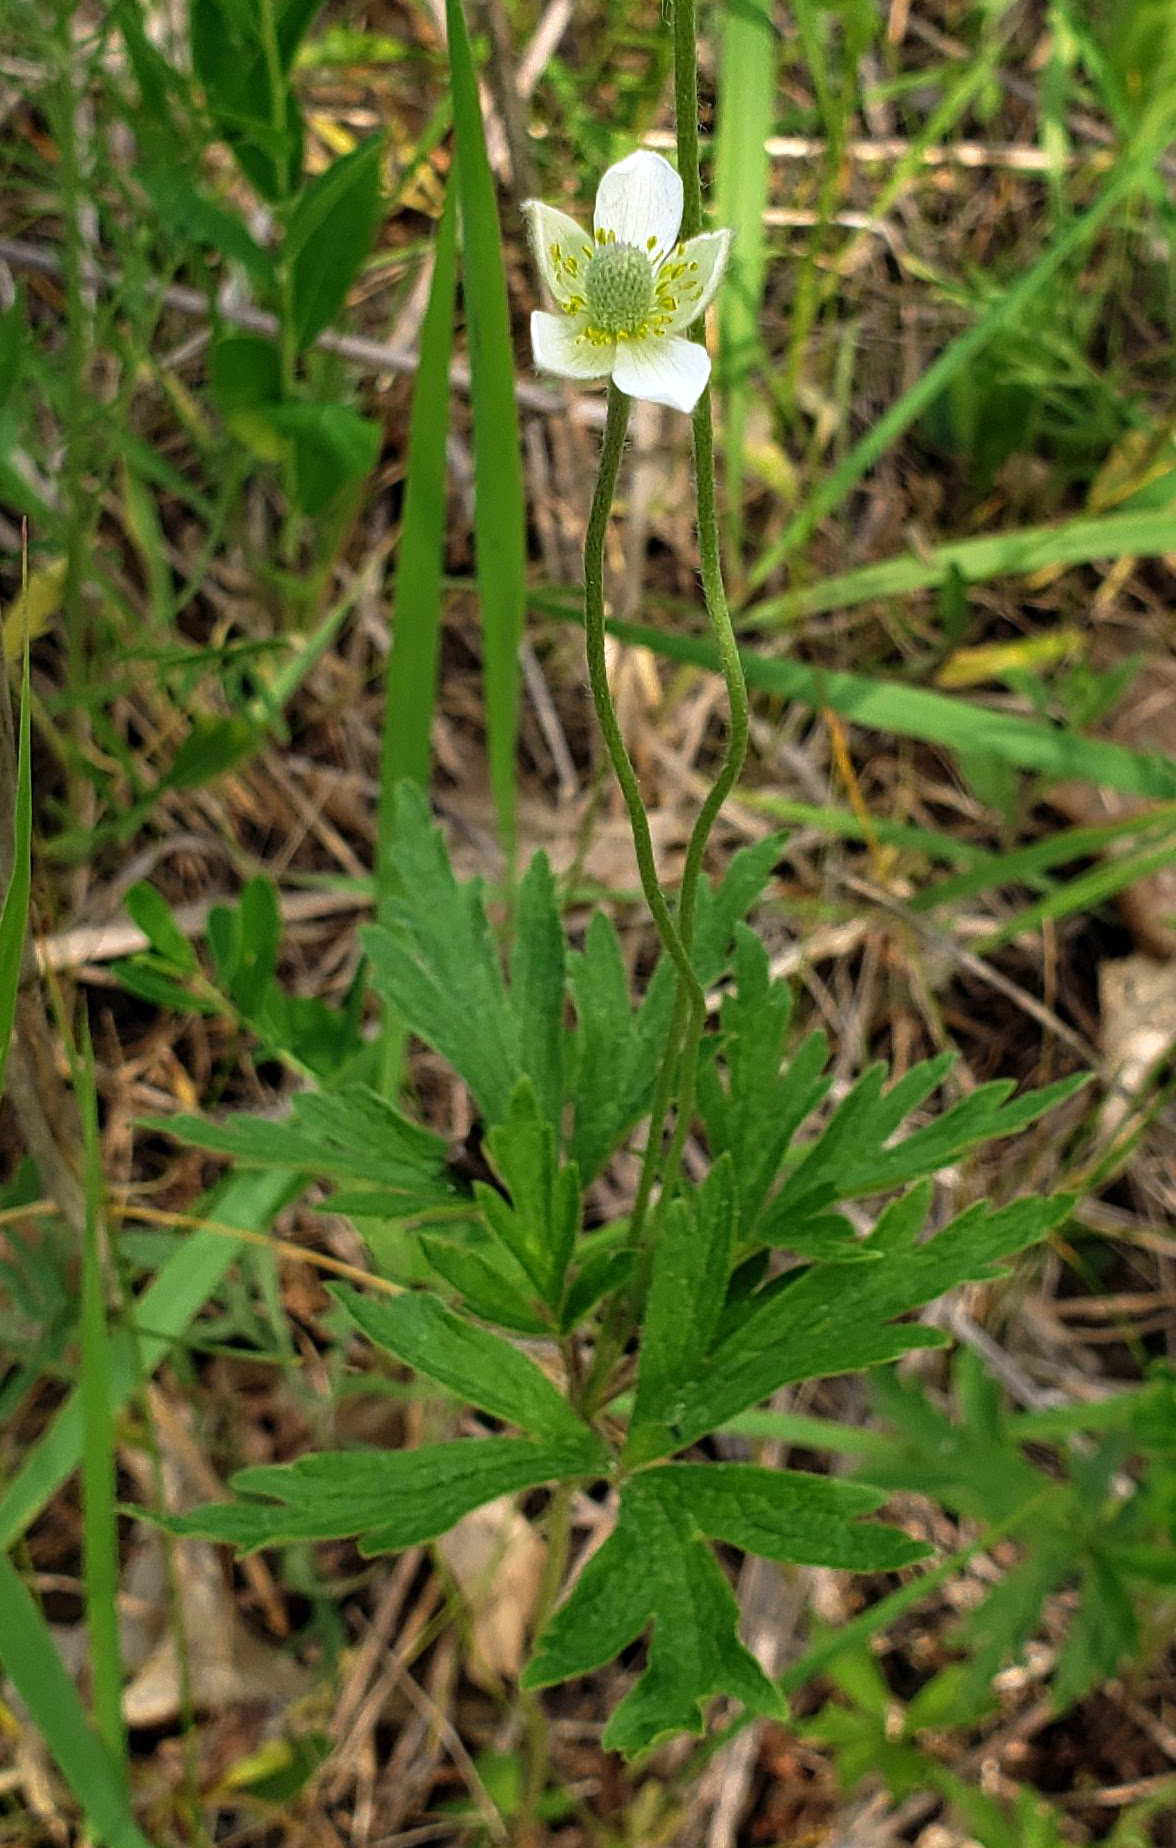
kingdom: Plantae
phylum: Tracheophyta
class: Magnoliopsida
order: Ranunculales
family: Ranunculaceae
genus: Anemone
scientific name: Anemone cylindrica
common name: Candle anemone
